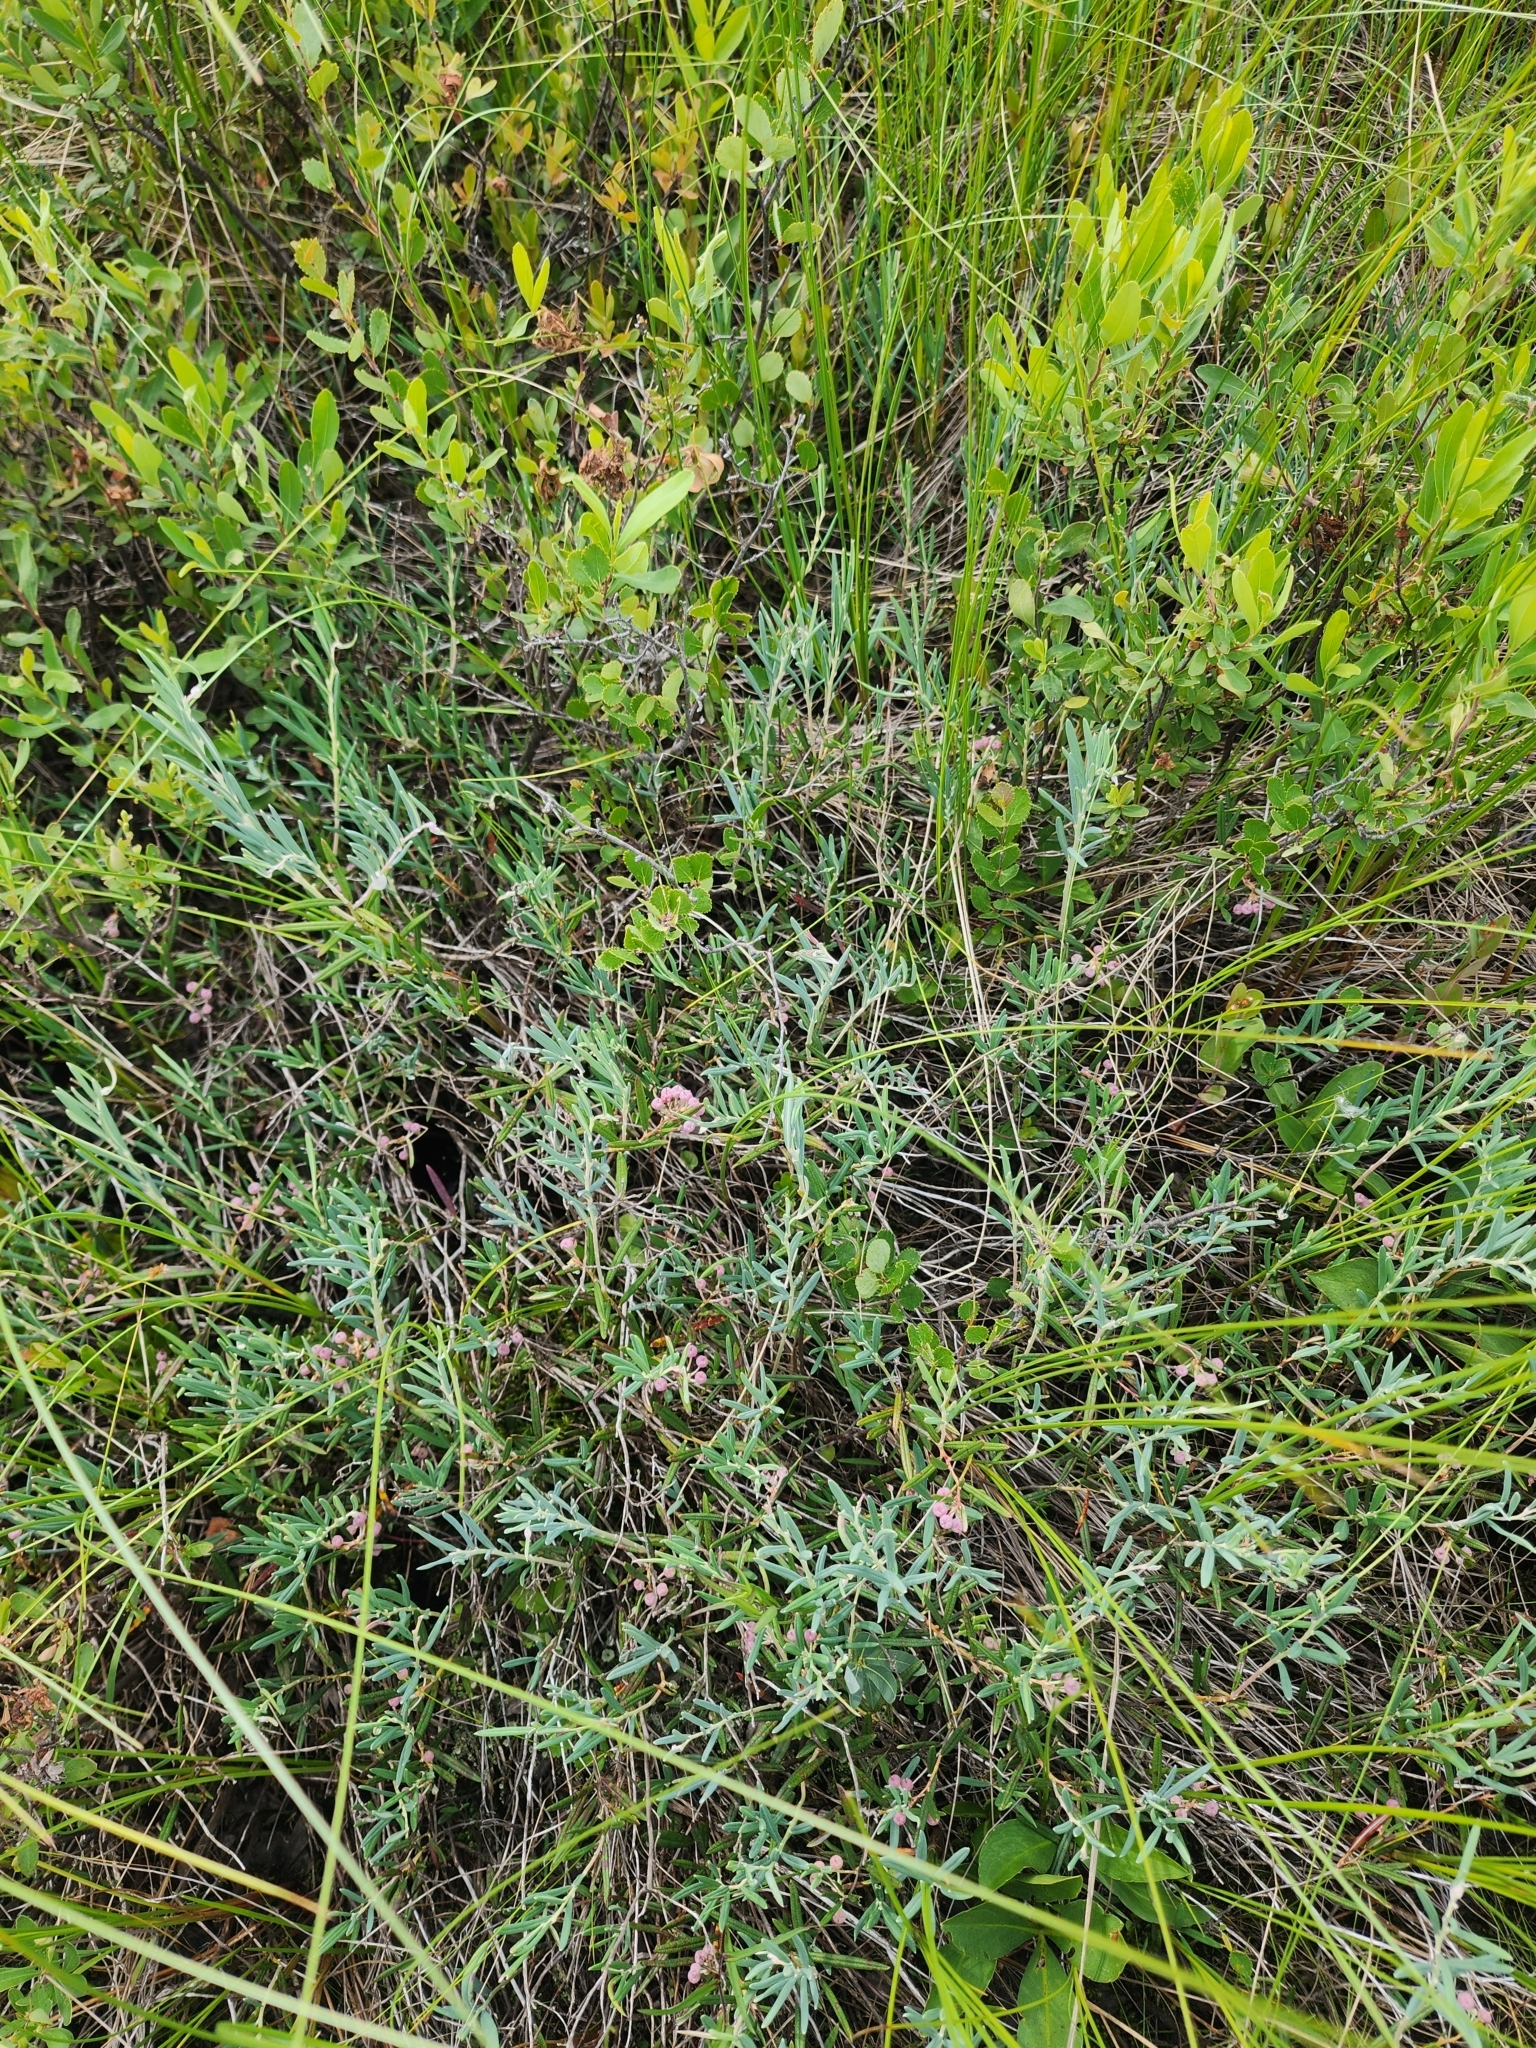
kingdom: Plantae
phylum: Tracheophyta
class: Magnoliopsida
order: Ericales
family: Ericaceae
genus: Andromeda
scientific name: Andromeda polifolia
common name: Bog-rosemary
